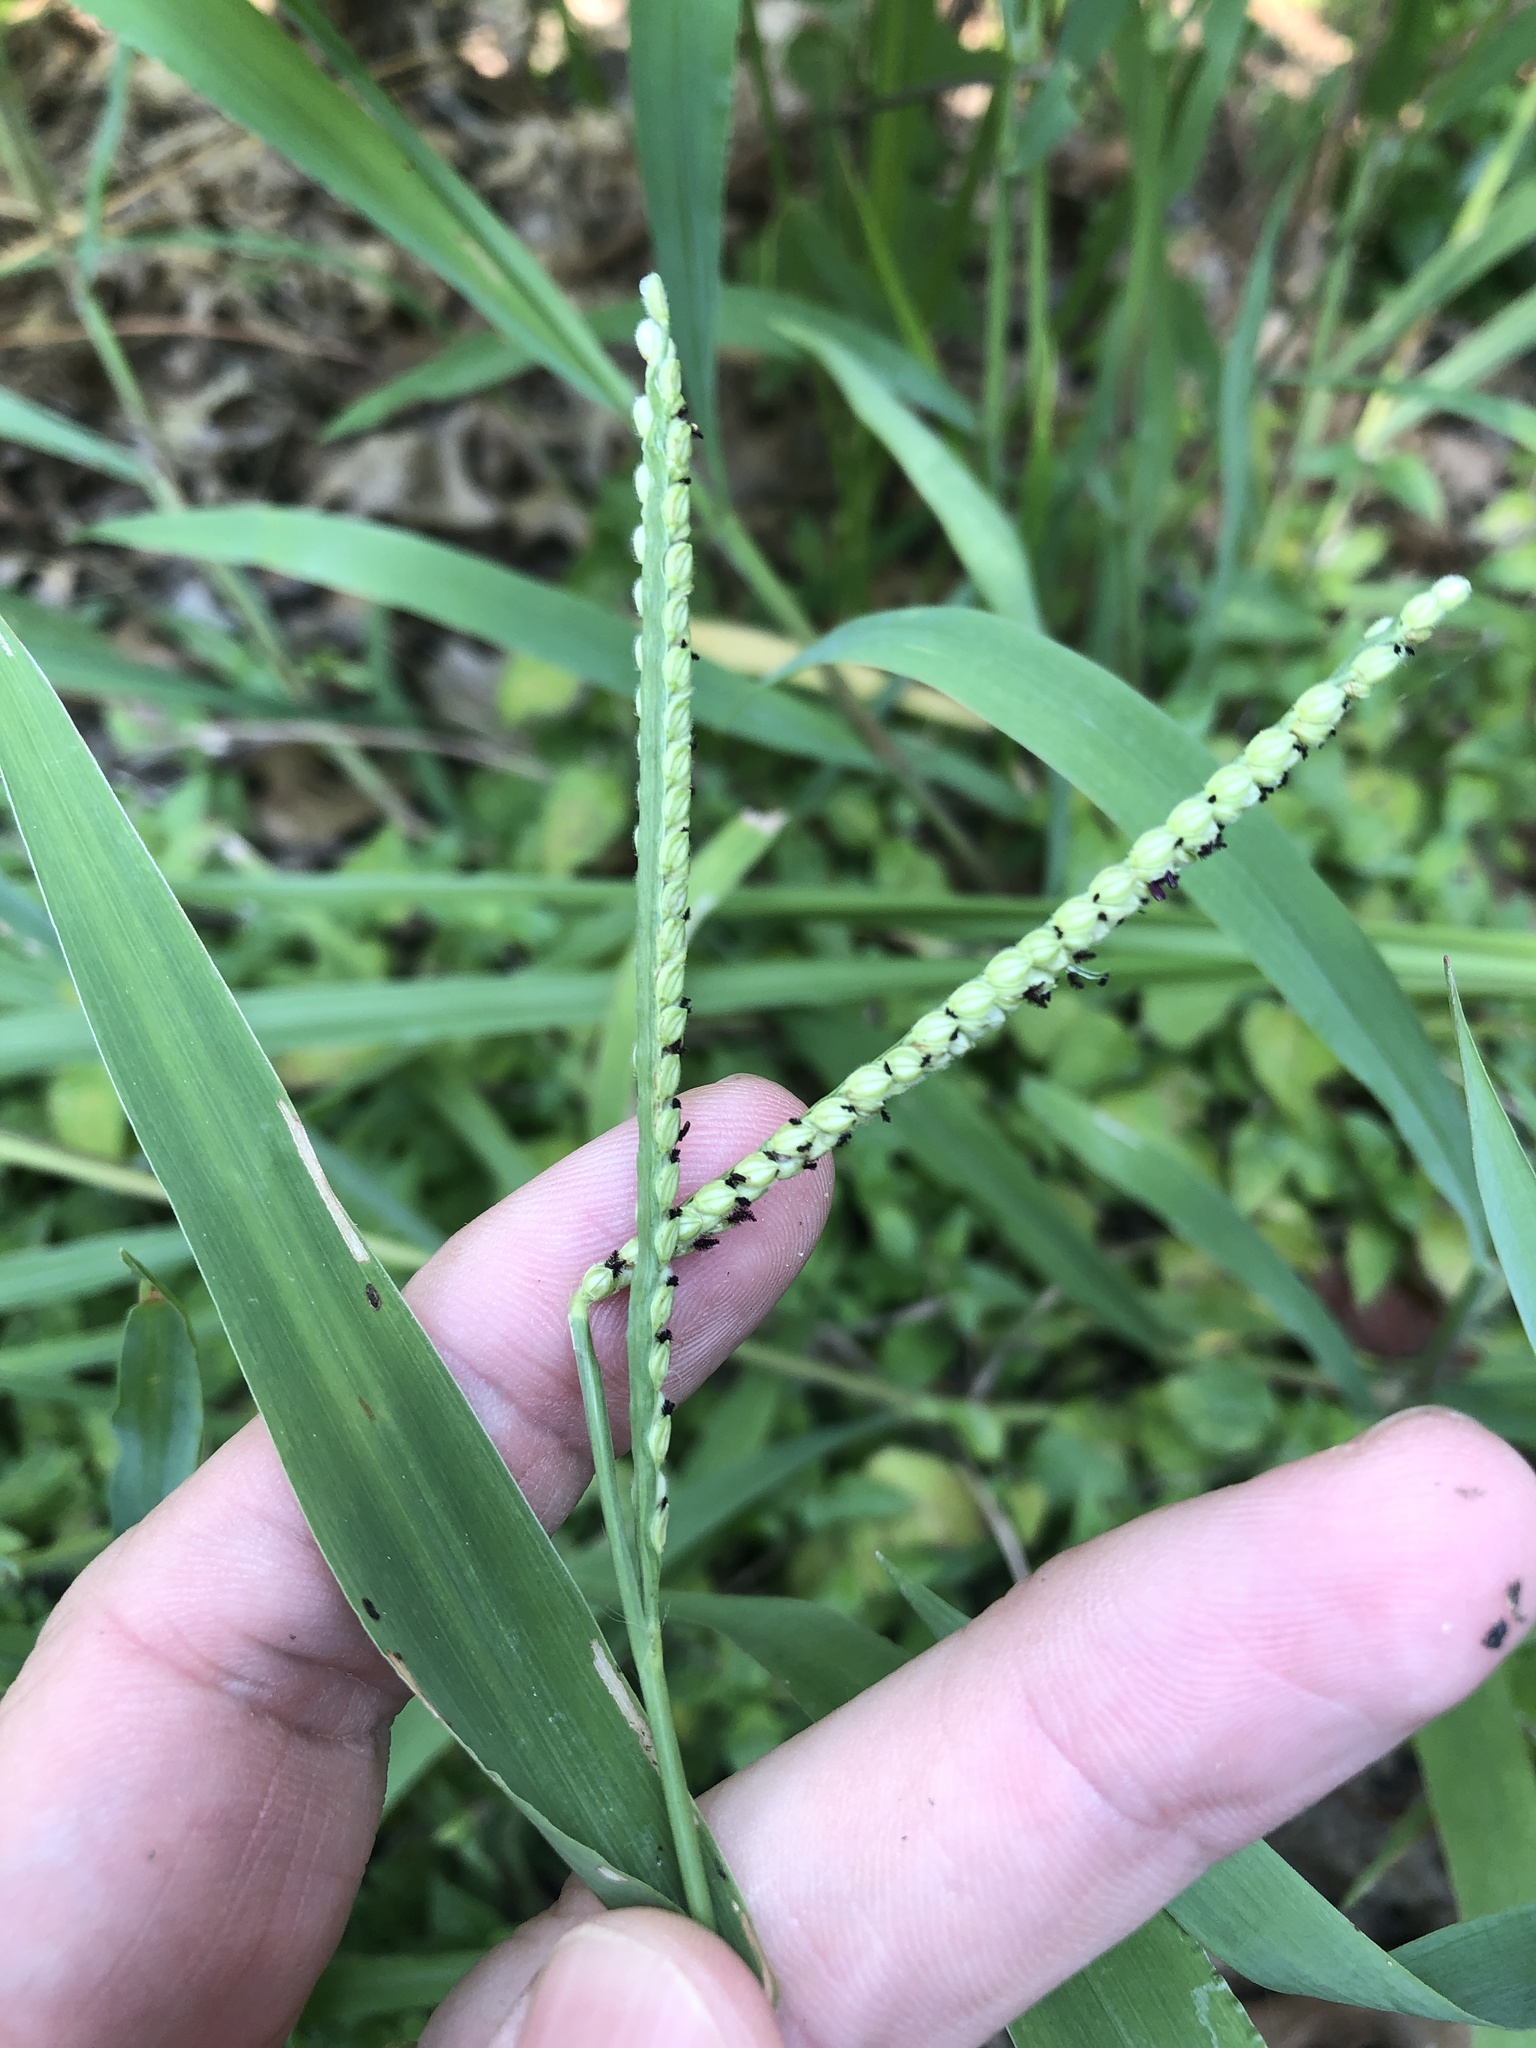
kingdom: Plantae
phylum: Tracheophyta
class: Liliopsida
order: Poales
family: Poaceae
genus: Paspalum
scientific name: Paspalum pubiflorum
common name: Hairy-seed paspalum
